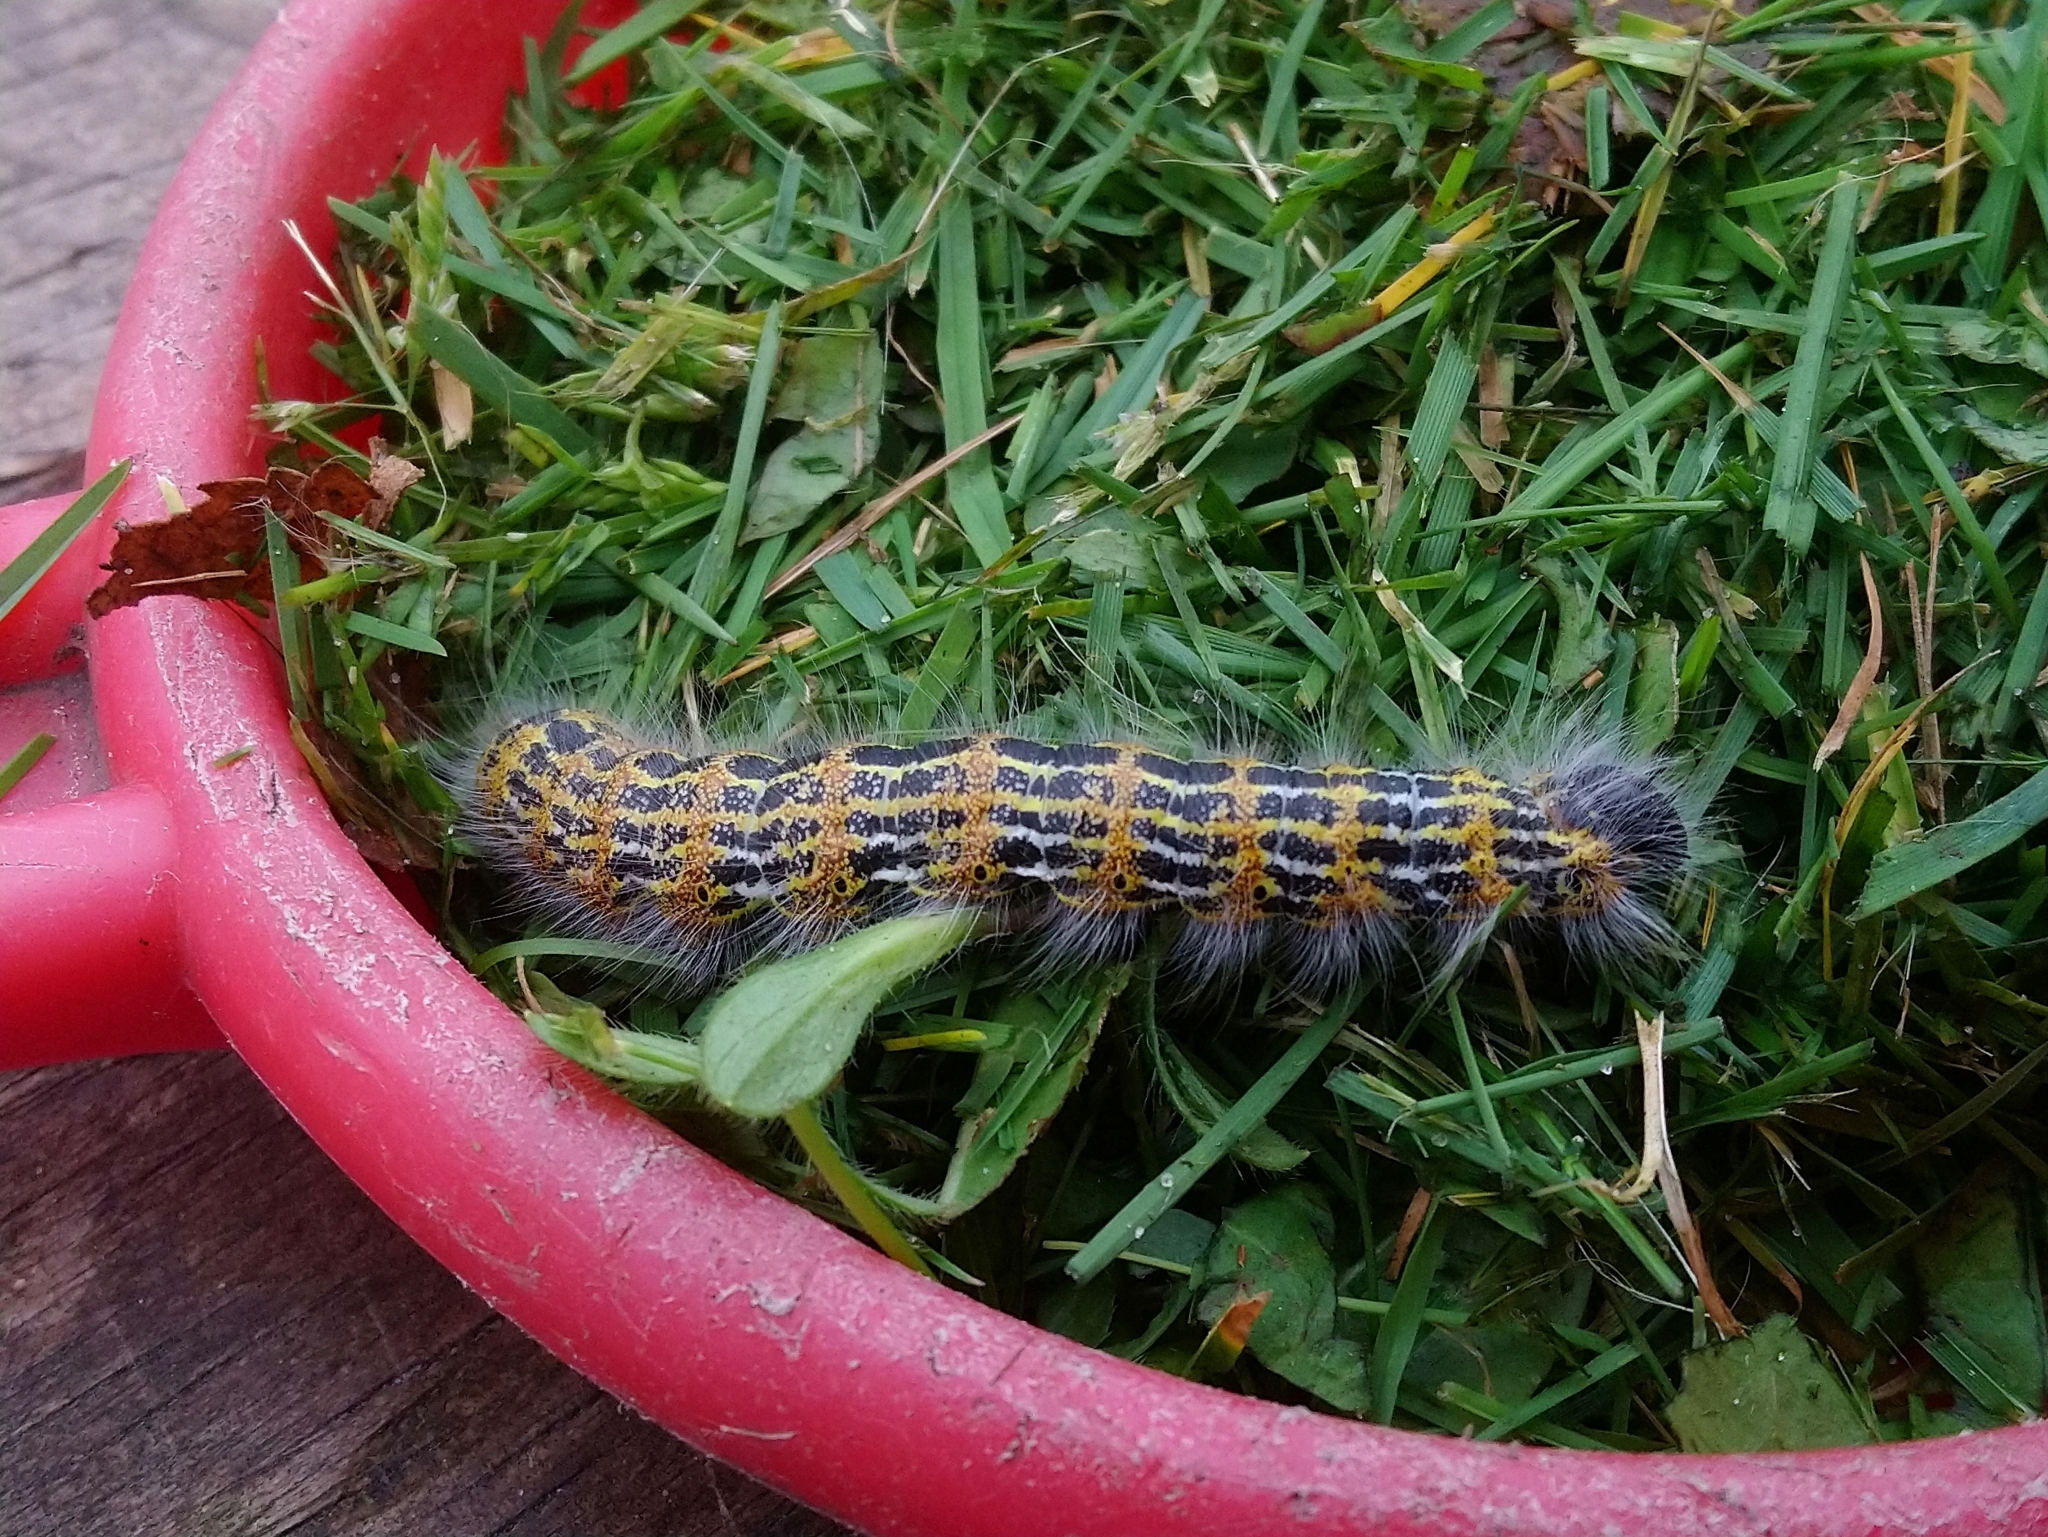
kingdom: Animalia
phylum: Arthropoda
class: Insecta
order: Lepidoptera
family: Notodontidae
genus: Phalera
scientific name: Phalera bucephala
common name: Buff-tip
